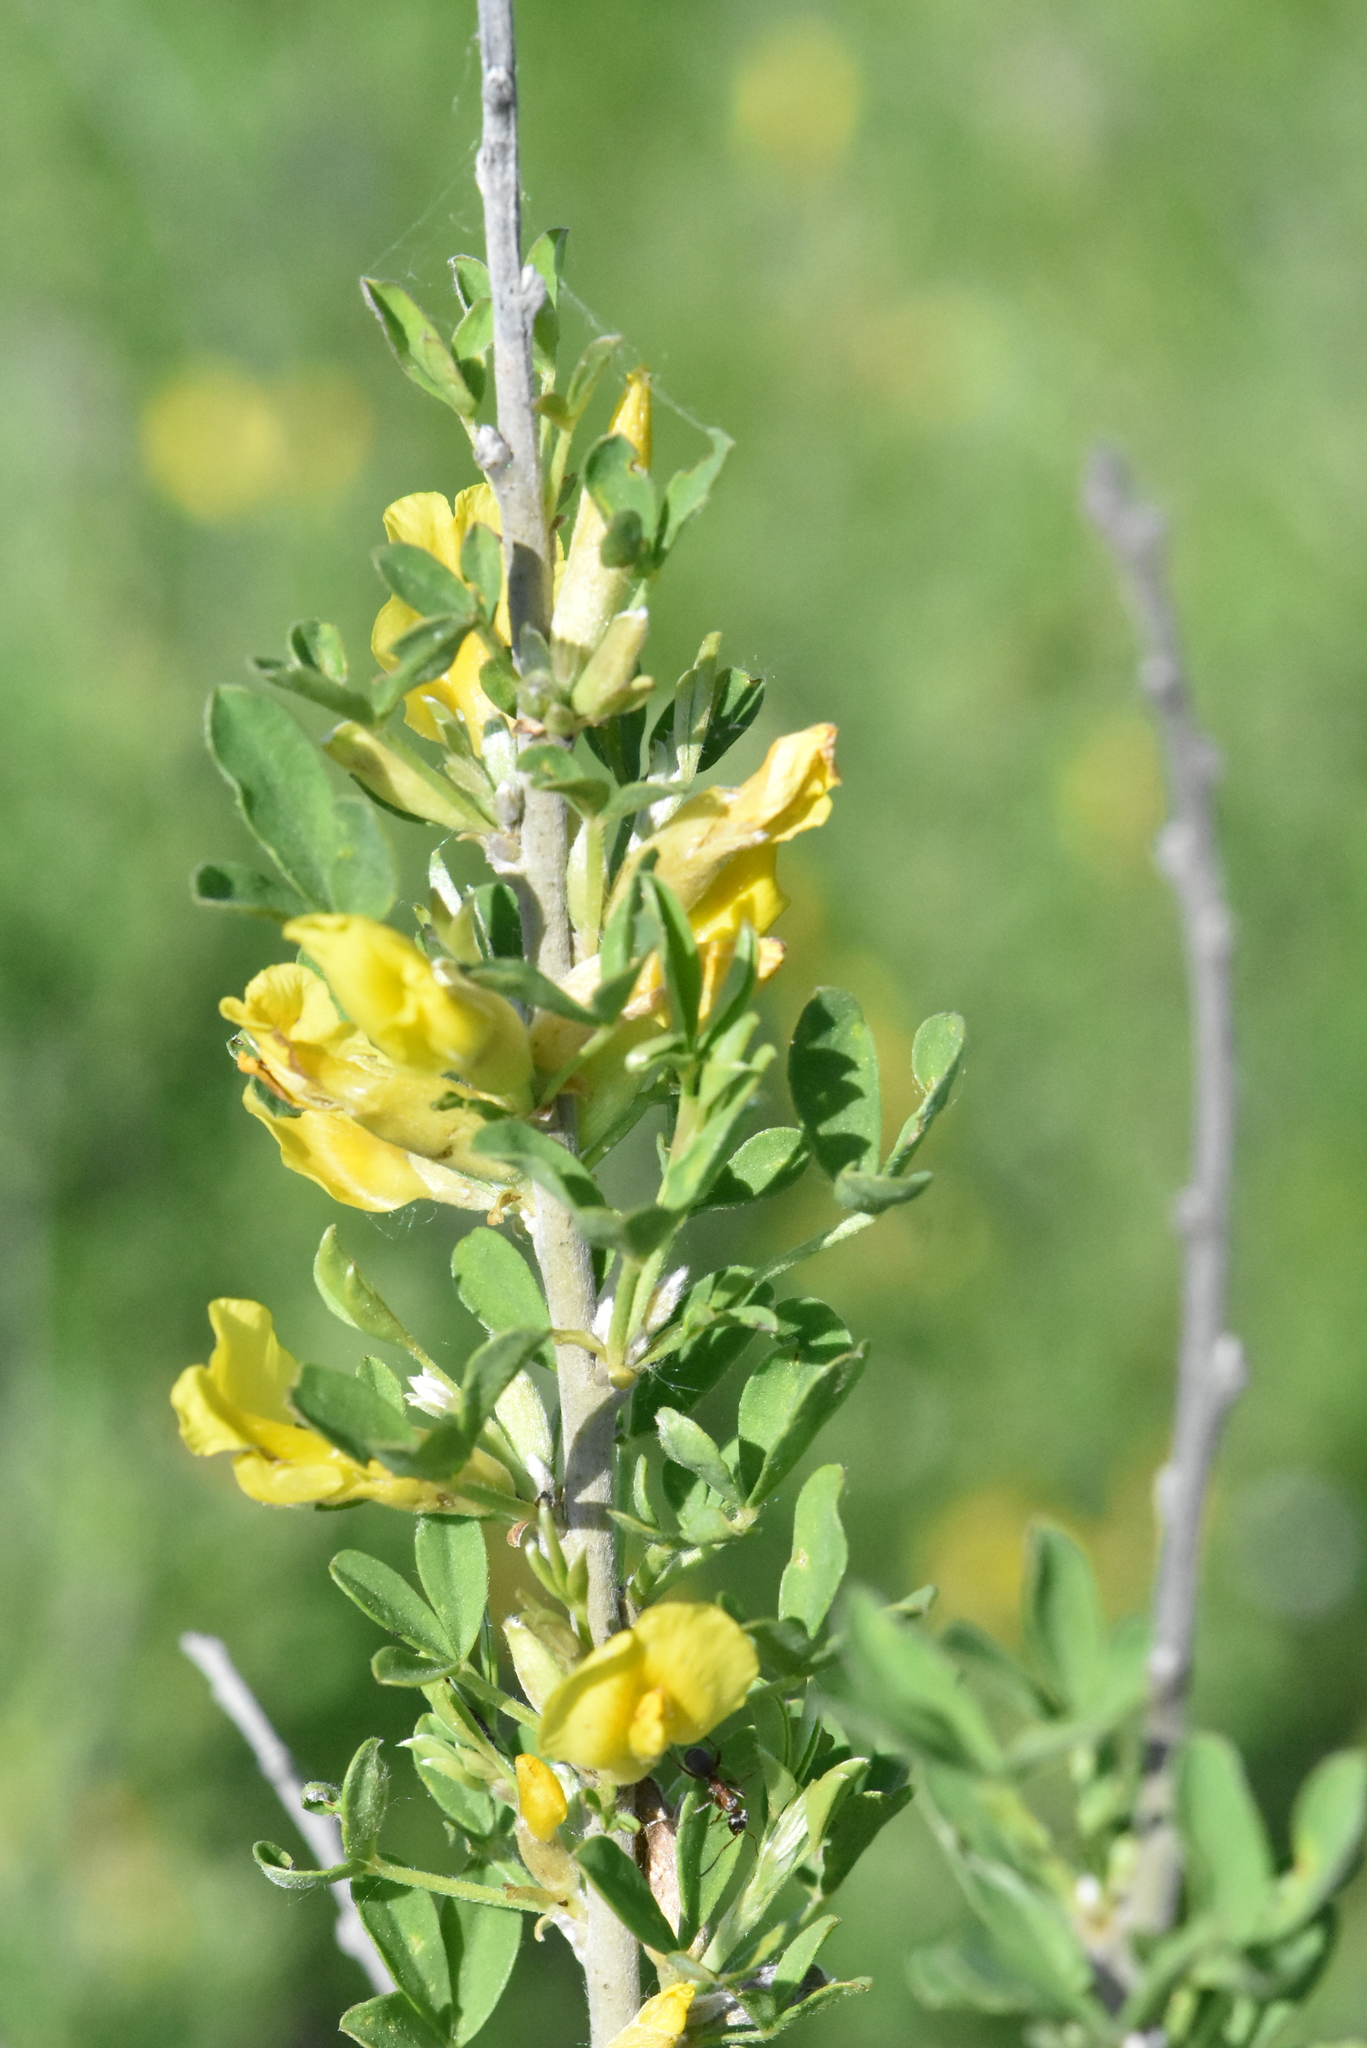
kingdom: Plantae
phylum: Tracheophyta
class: Magnoliopsida
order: Fabales
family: Fabaceae
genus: Chamaecytisus
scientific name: Chamaecytisus ruthenicus
